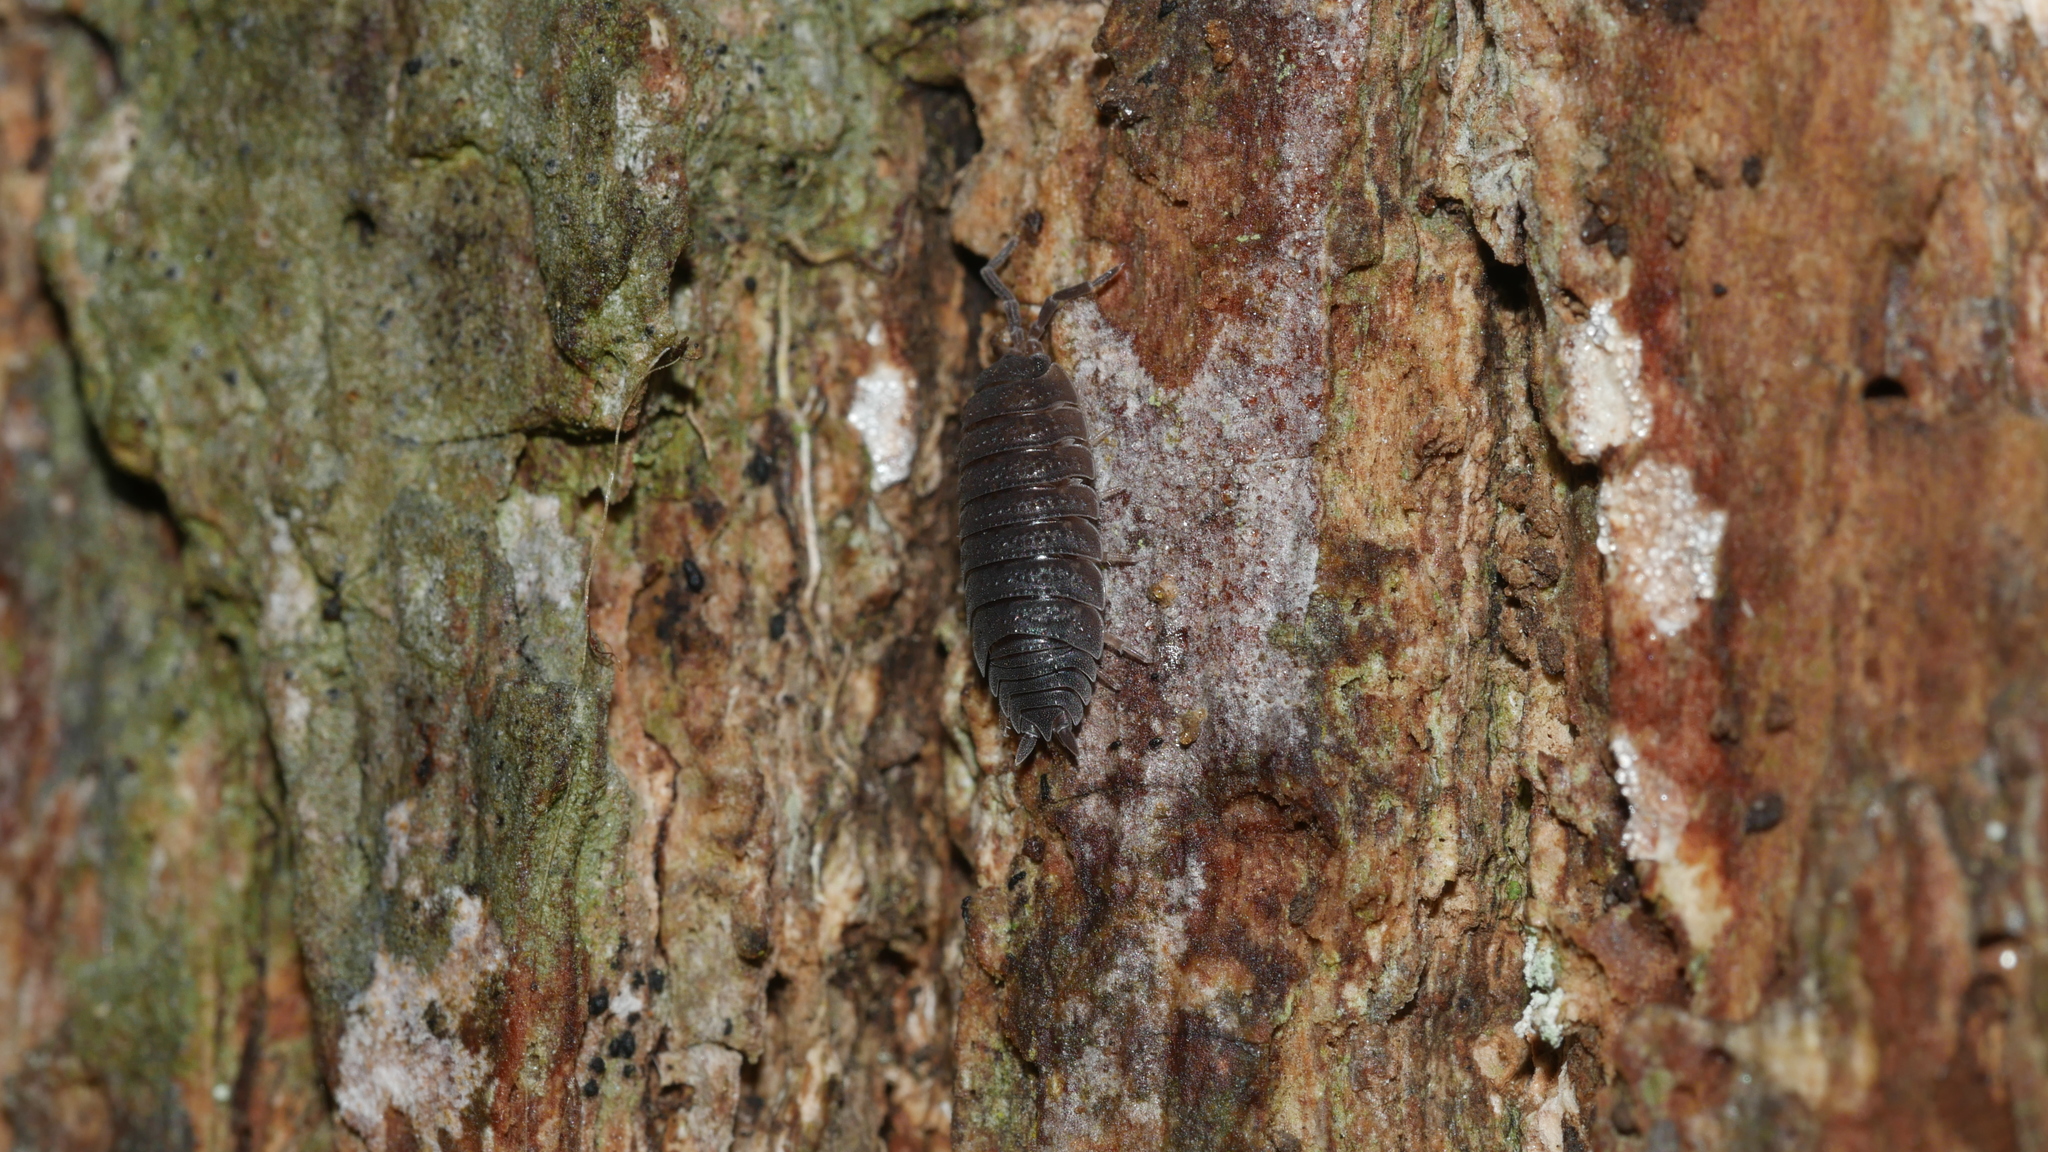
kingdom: Animalia
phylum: Arthropoda
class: Malacostraca
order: Isopoda
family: Porcellionidae
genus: Porcellio
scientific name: Porcellio scaber
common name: Common rough woodlouse
